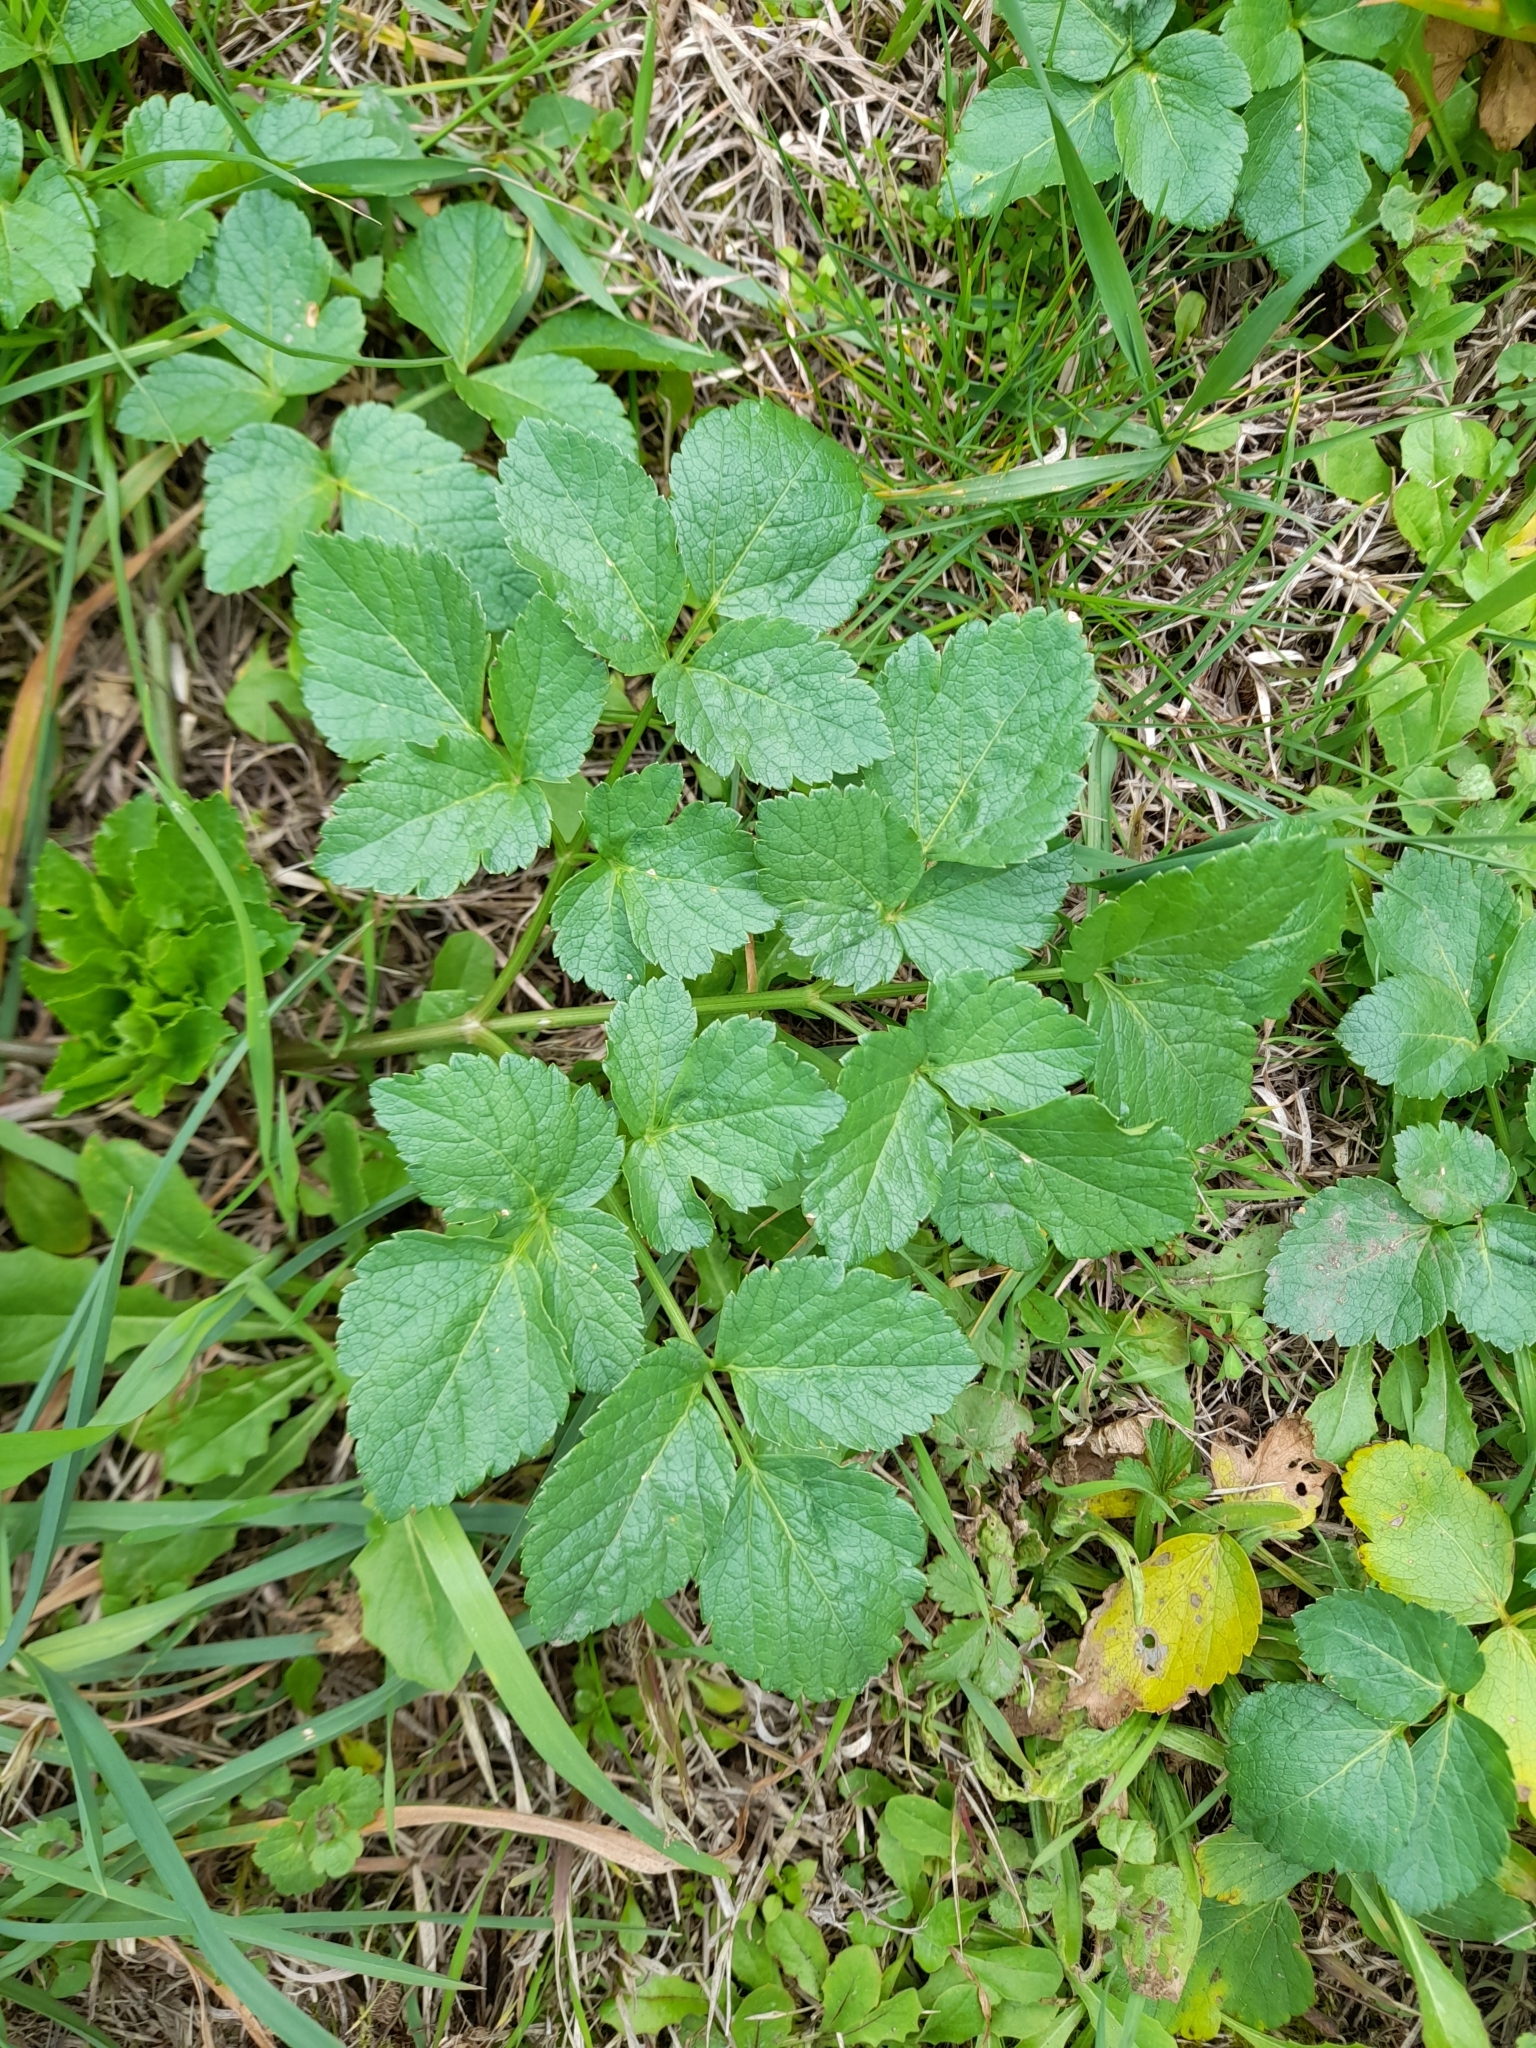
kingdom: Plantae
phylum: Tracheophyta
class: Magnoliopsida
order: Apiales
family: Apiaceae
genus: Smyrnium
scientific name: Smyrnium olusatrum
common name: Alexanders
